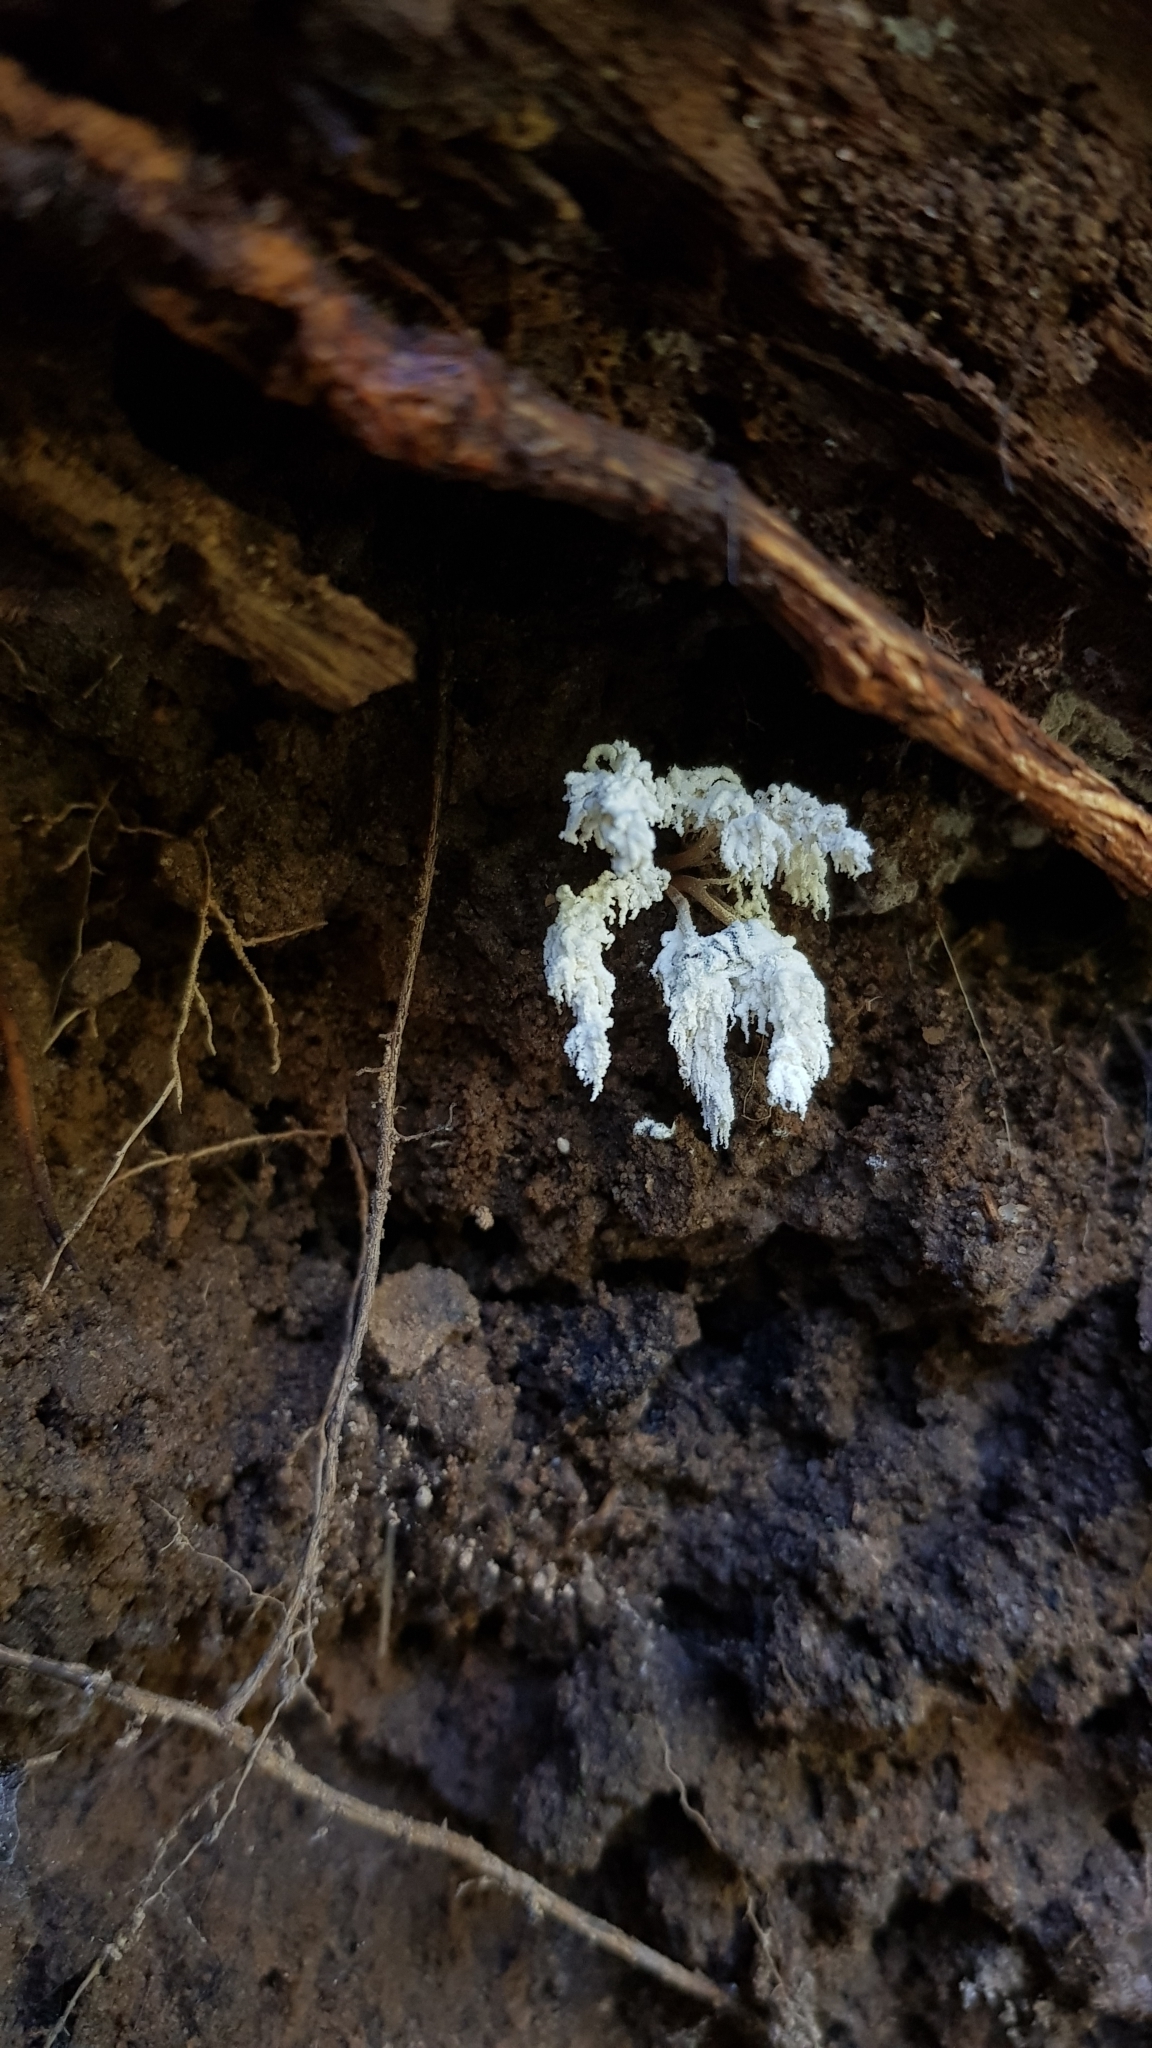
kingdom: Fungi
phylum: Ascomycota
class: Sordariomycetes
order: Hypocreales
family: Cordycipitaceae
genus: Cordyceps
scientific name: Cordyceps tenuipes
